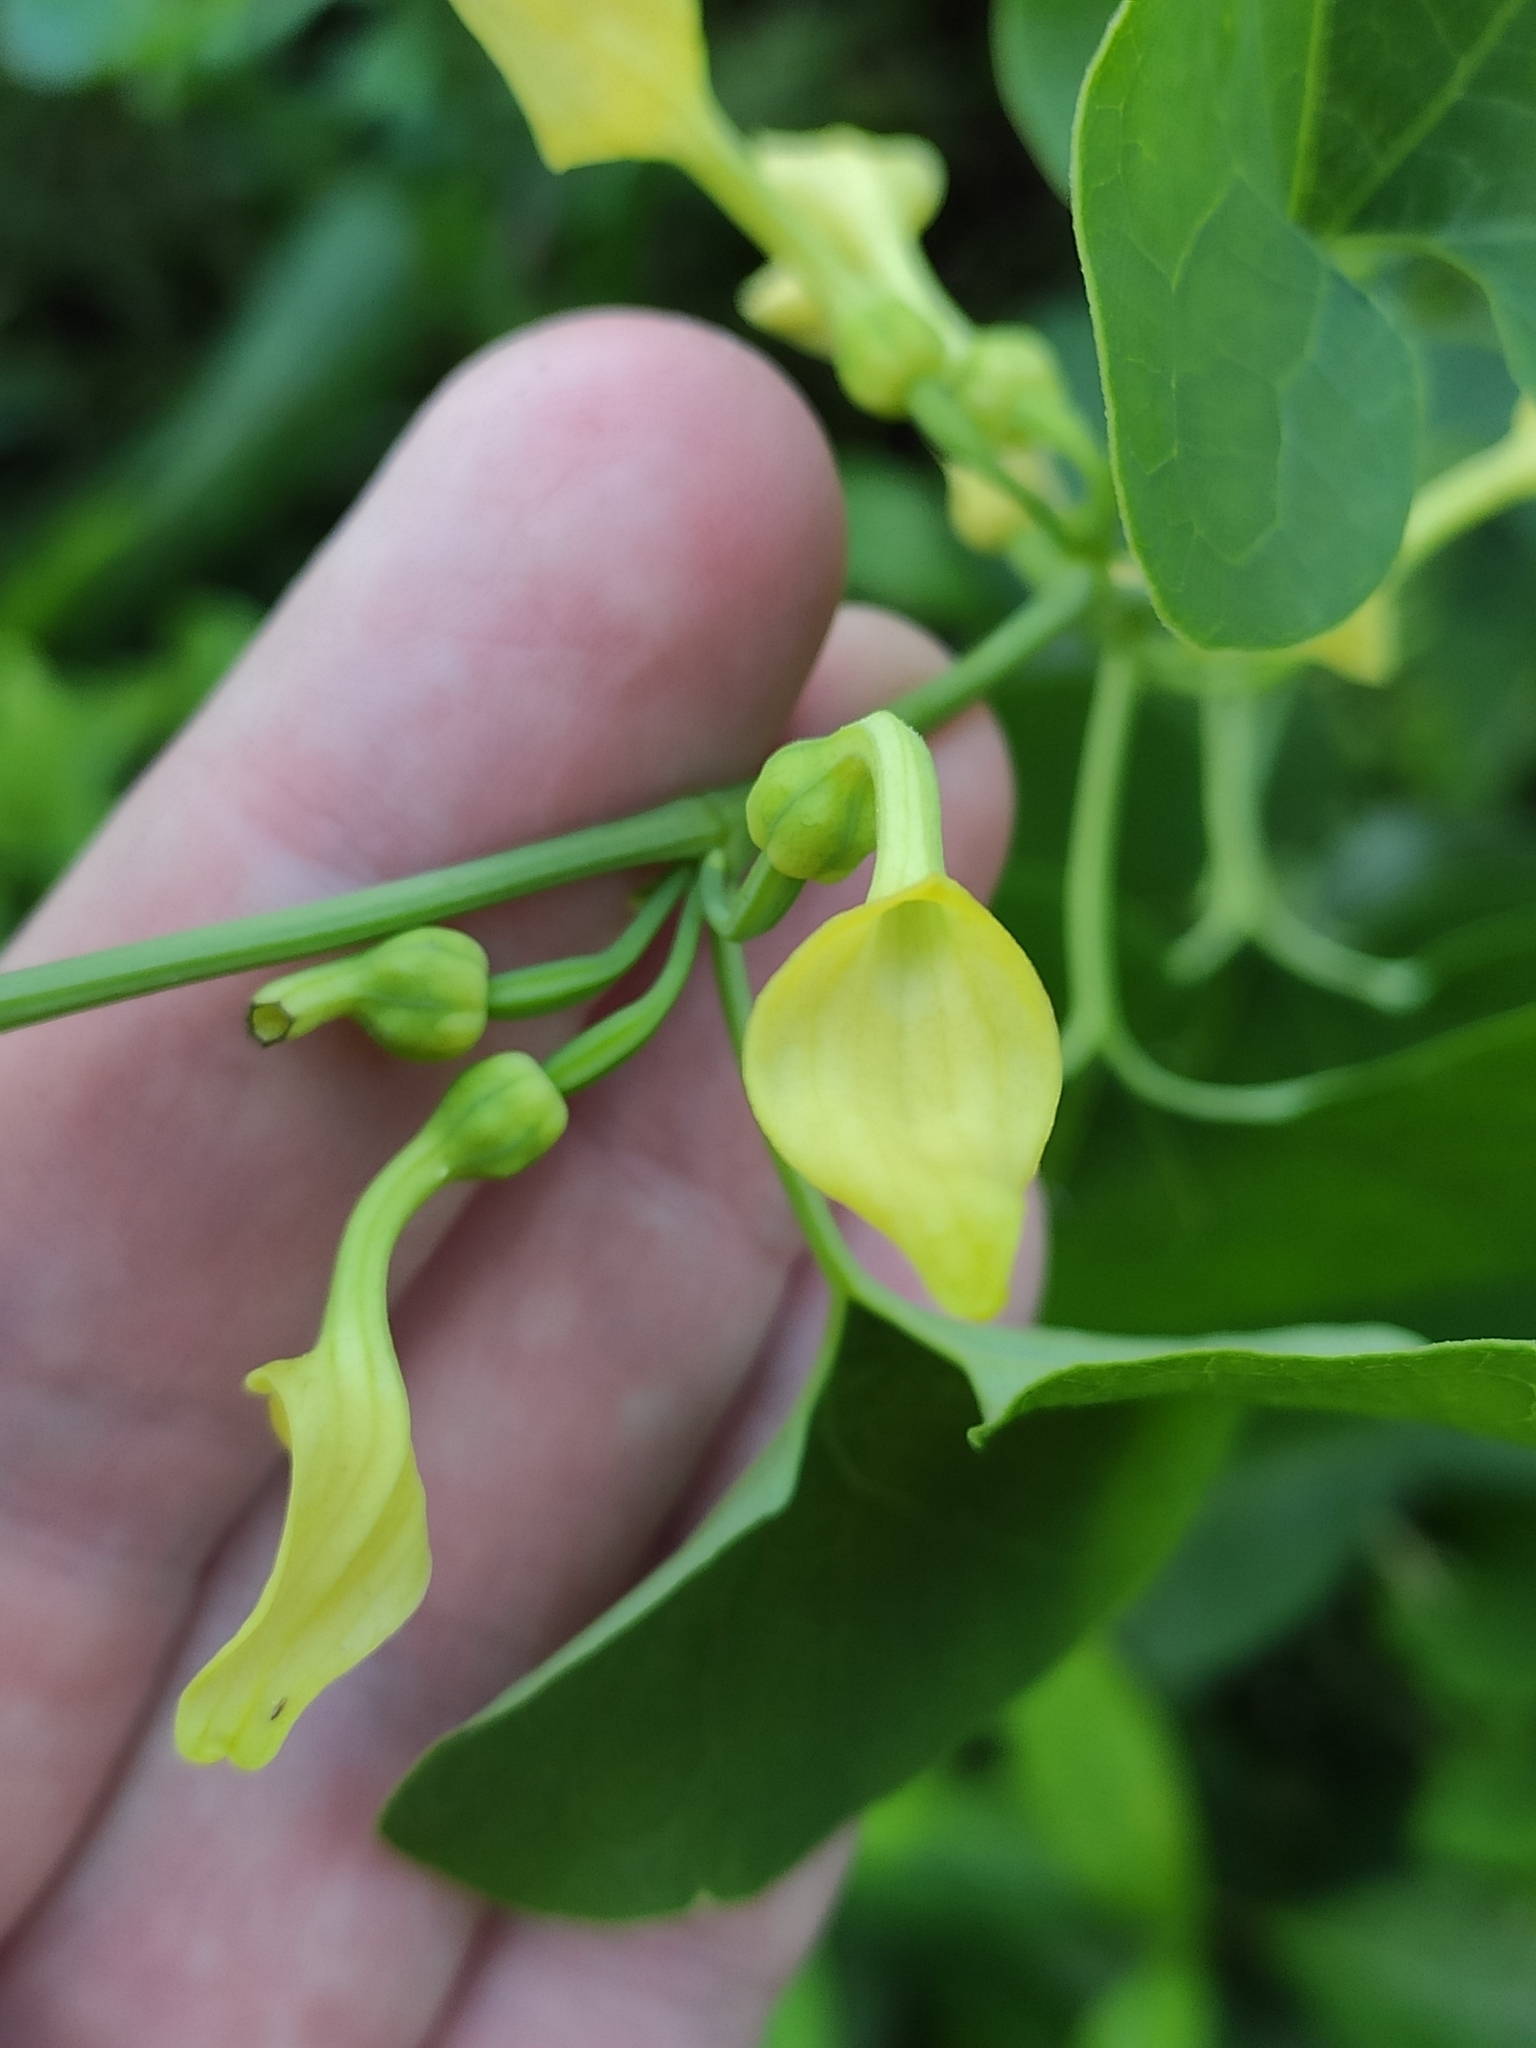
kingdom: Plantae
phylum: Tracheophyta
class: Magnoliopsida
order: Piperales
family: Aristolochiaceae
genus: Aristolochia
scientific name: Aristolochia clematitis
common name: Birthwort
